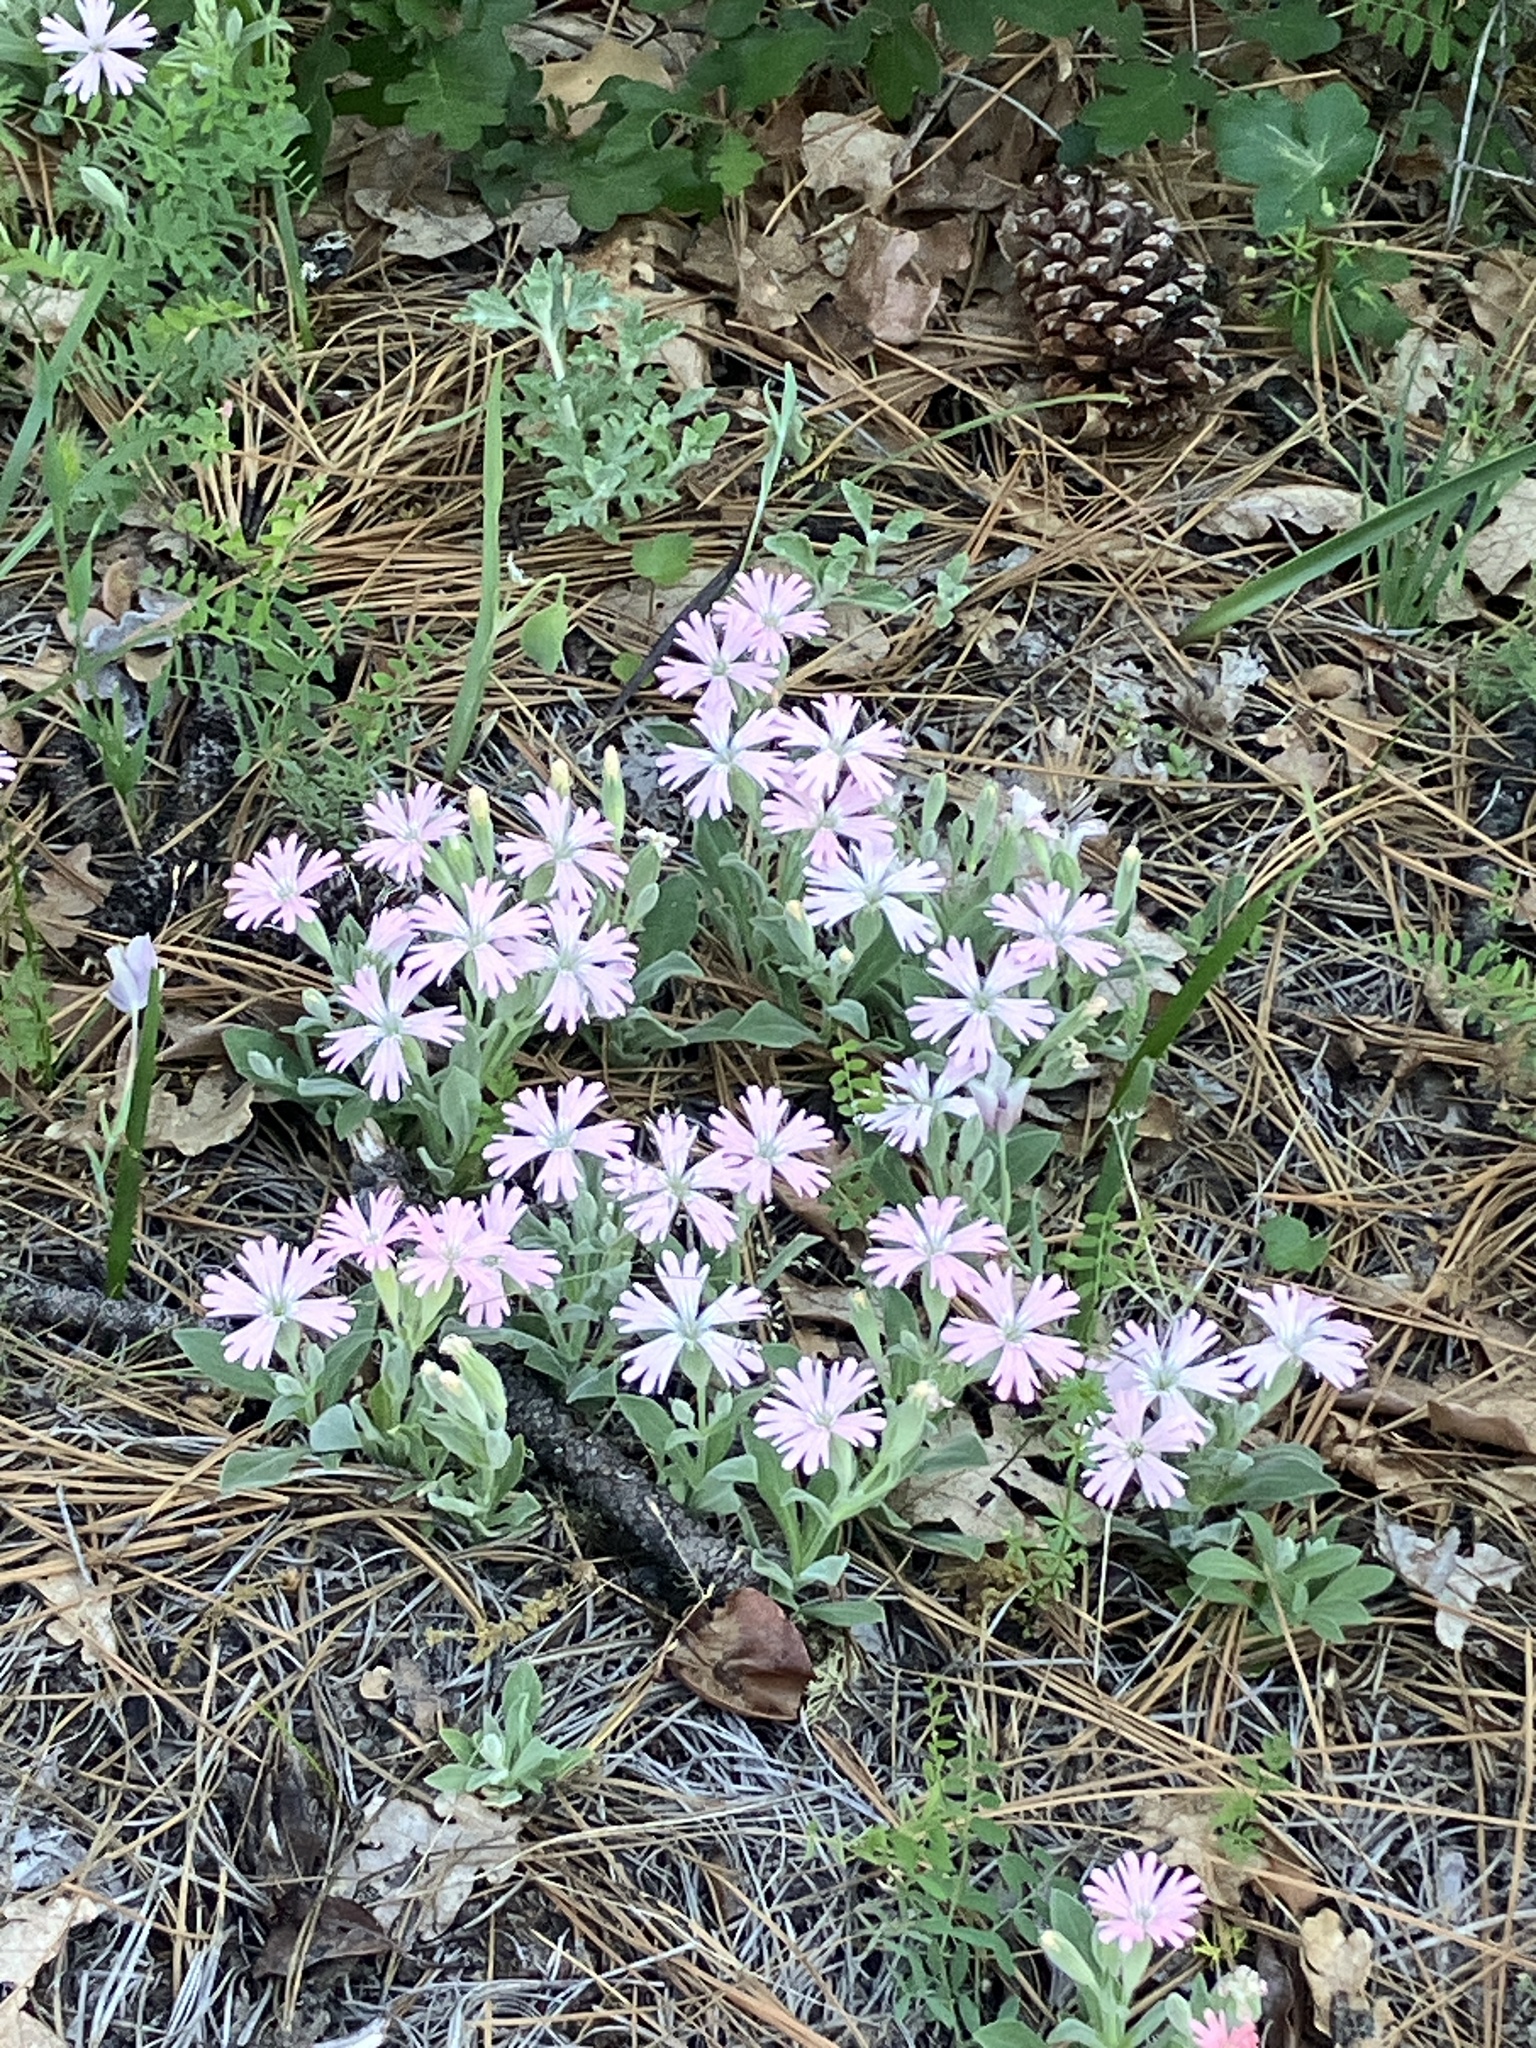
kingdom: Plantae
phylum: Tracheophyta
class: Magnoliopsida
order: Caryophyllales
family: Caryophyllaceae
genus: Silene
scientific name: Silene hookeri
